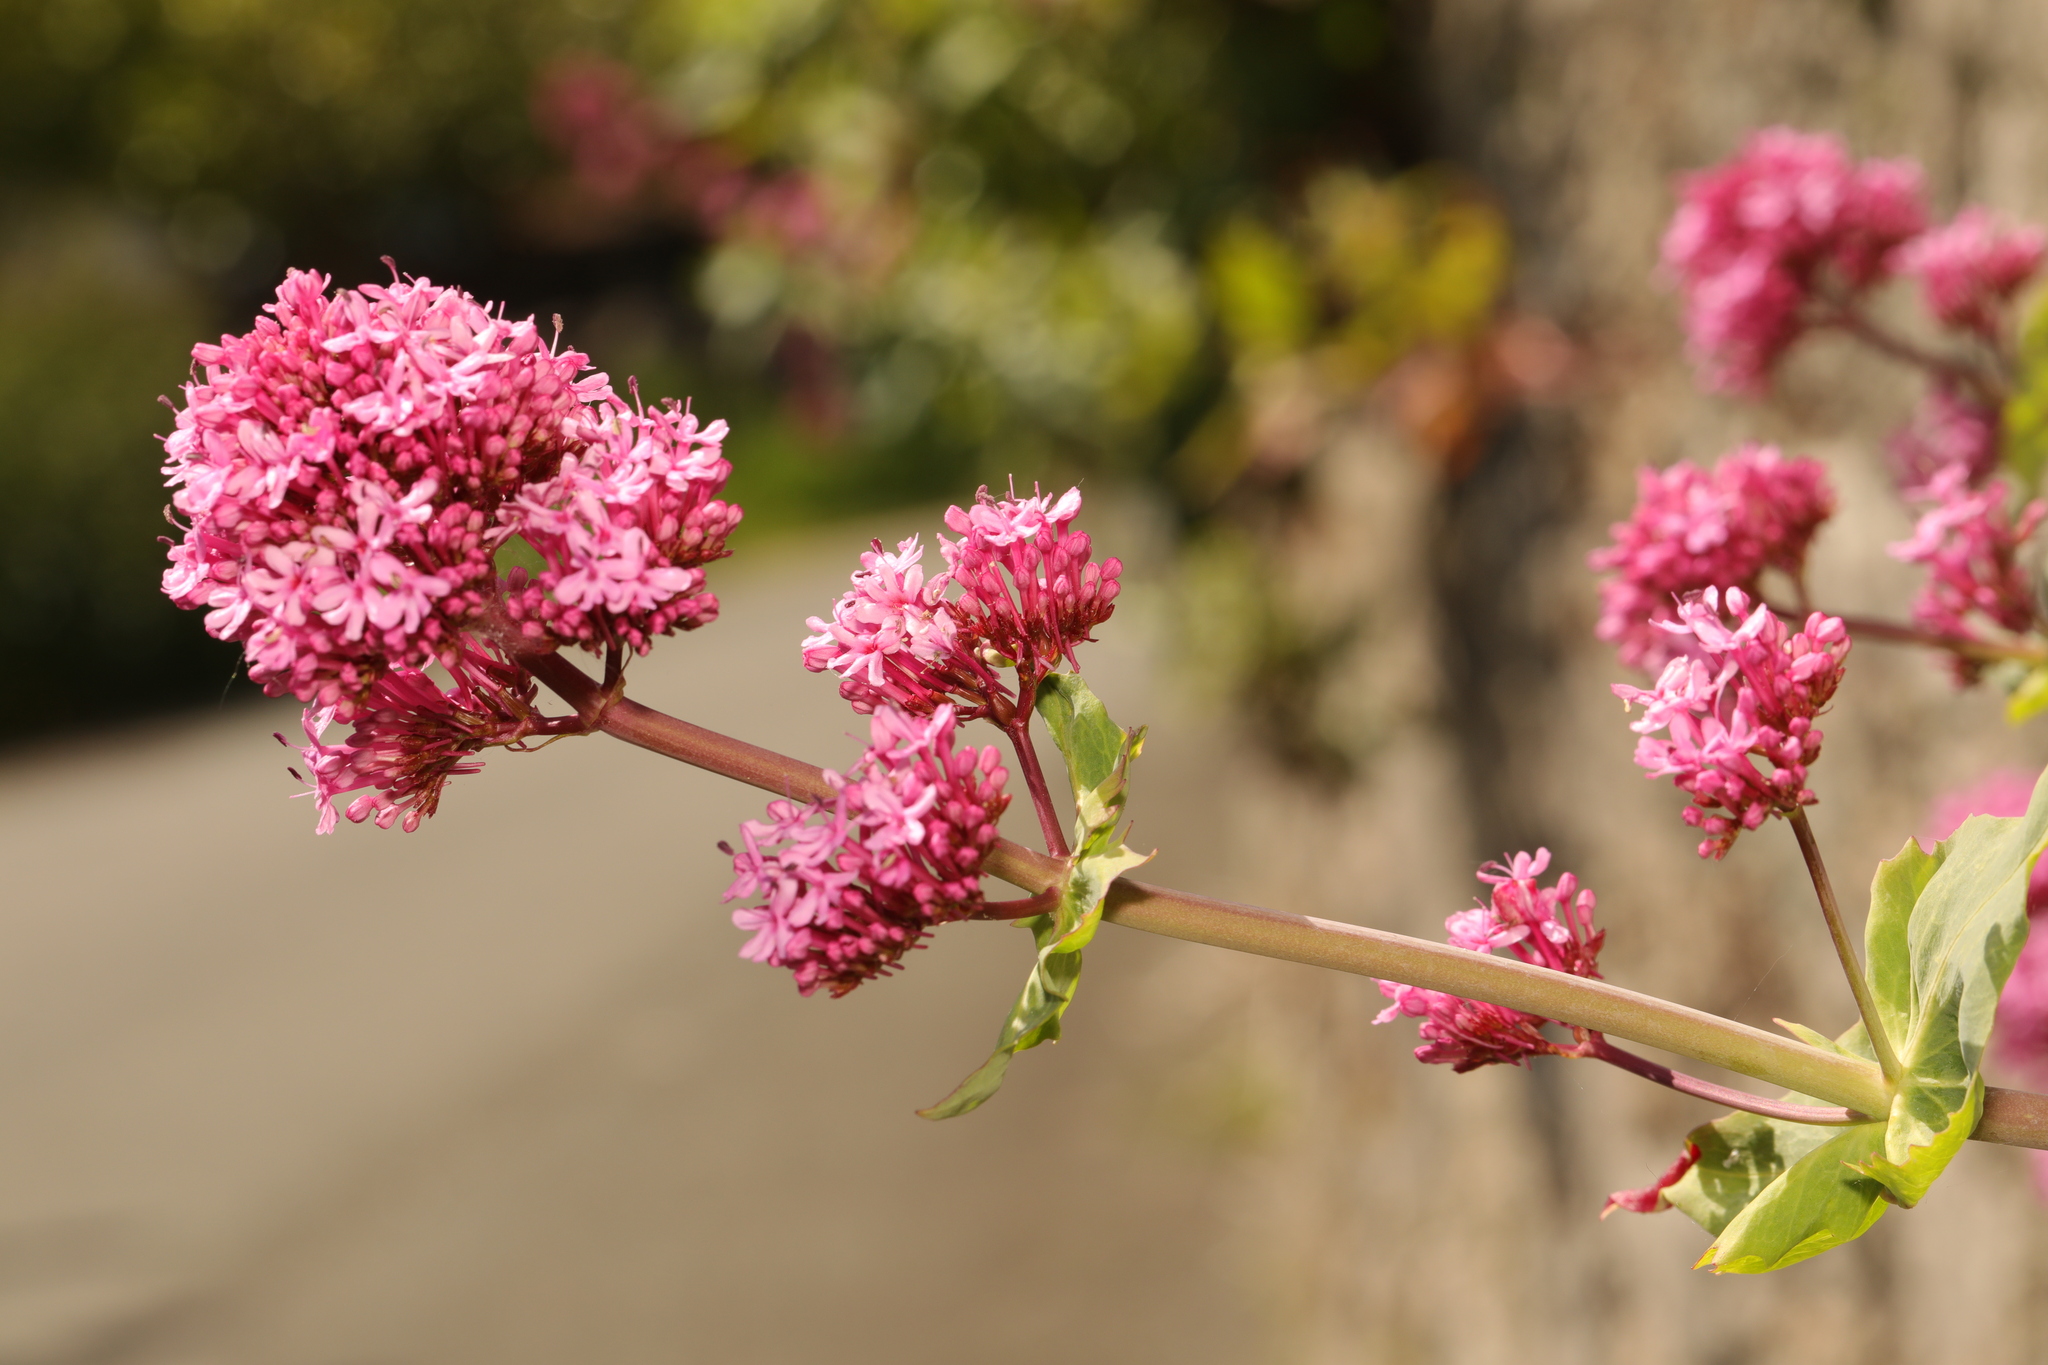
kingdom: Plantae
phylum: Tracheophyta
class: Magnoliopsida
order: Dipsacales
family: Caprifoliaceae
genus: Centranthus
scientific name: Centranthus ruber
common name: Red valerian
